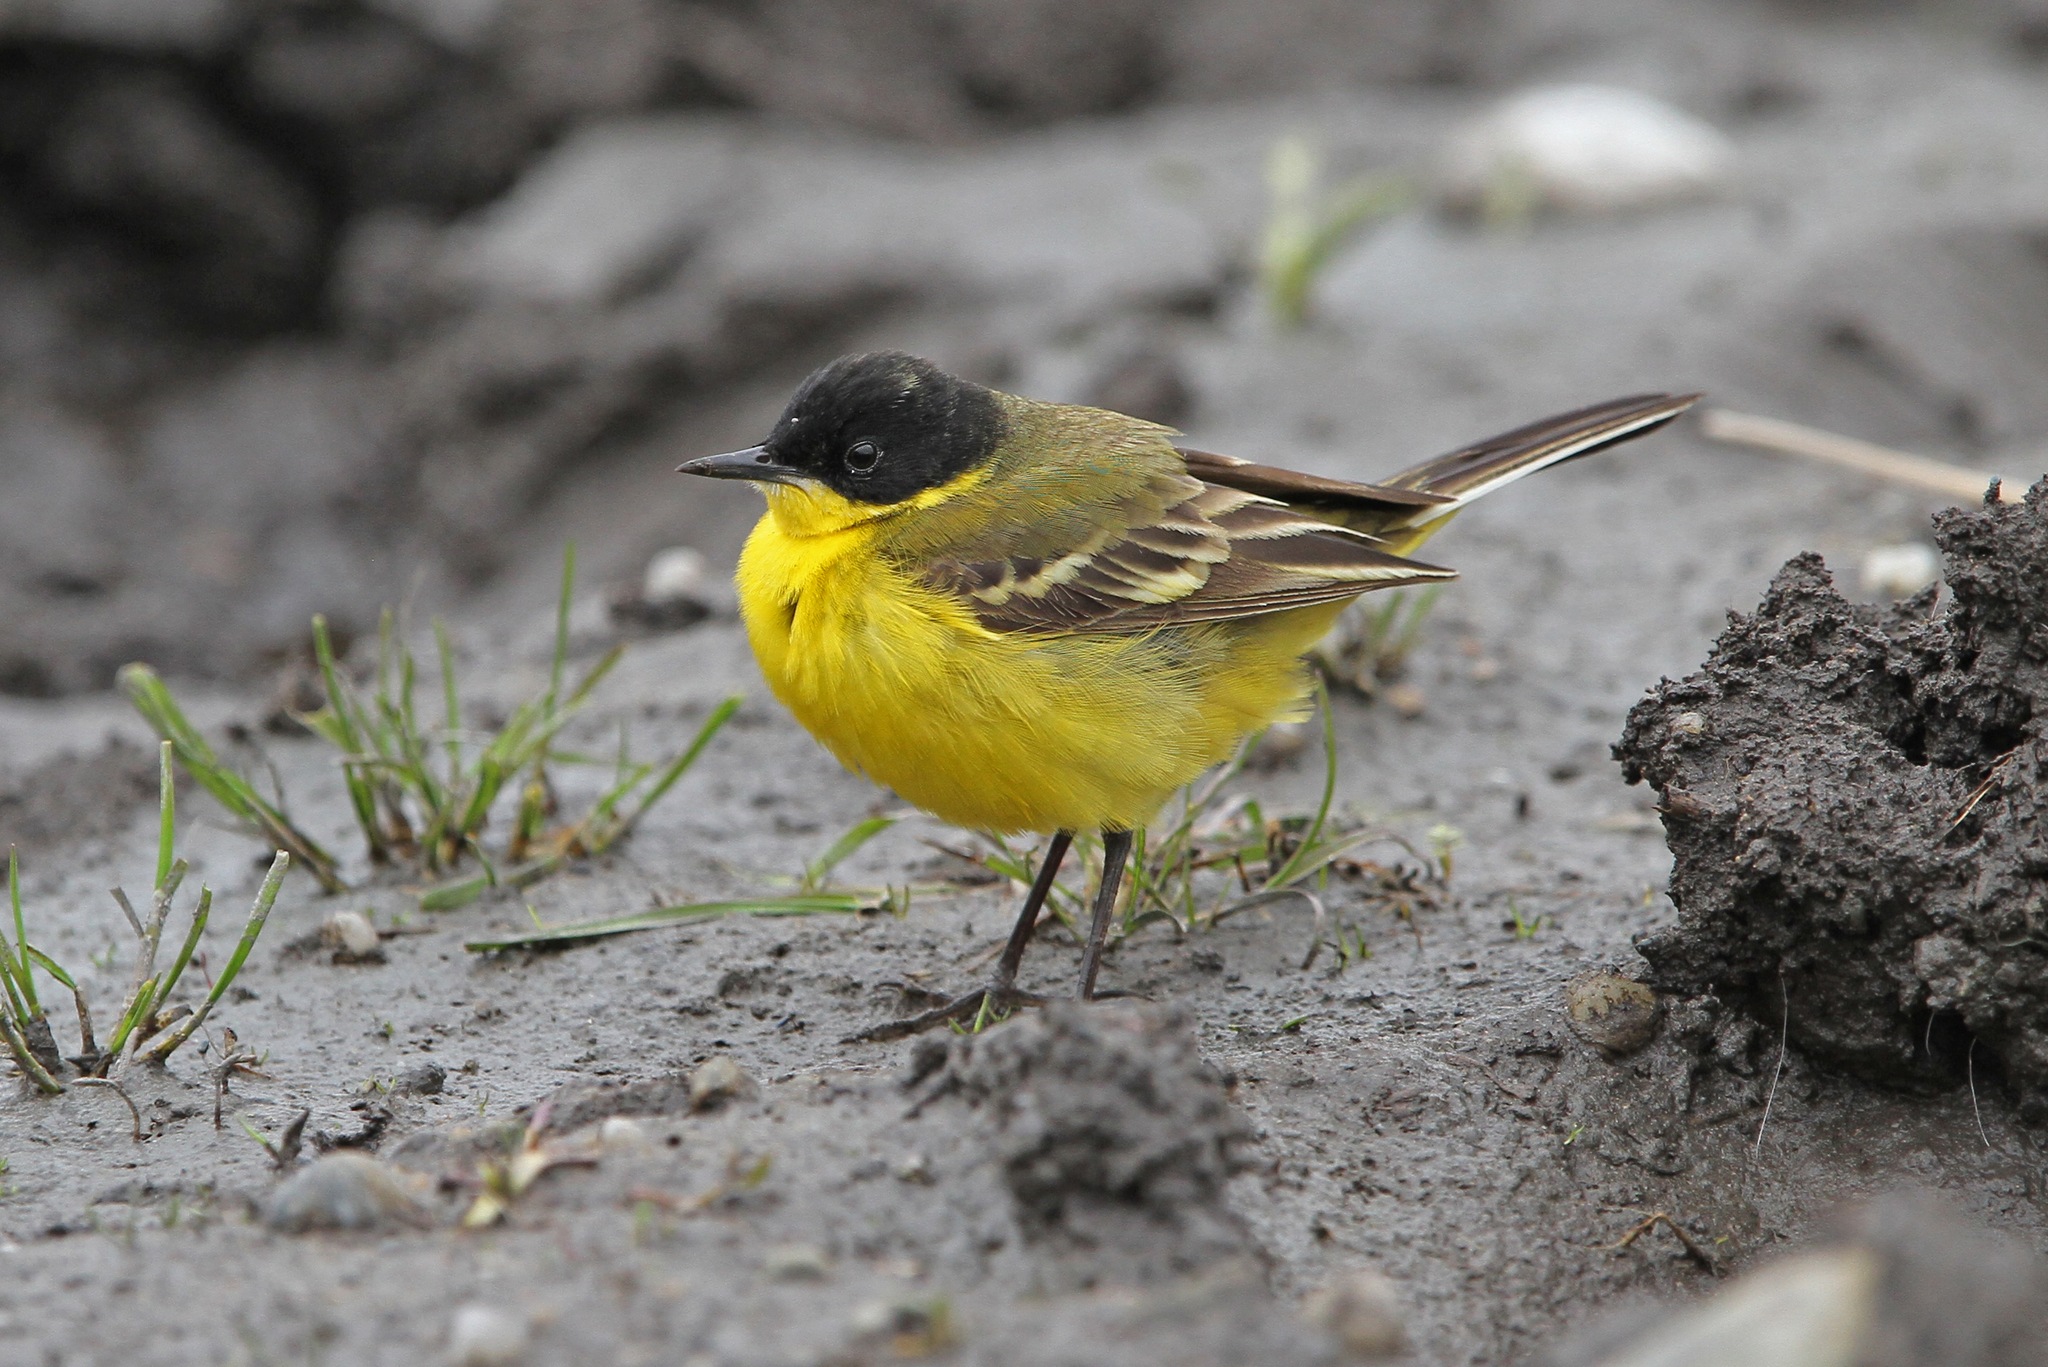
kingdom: Animalia
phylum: Chordata
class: Aves
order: Passeriformes
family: Motacillidae
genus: Motacilla
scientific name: Motacilla flava
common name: Western yellow wagtail
